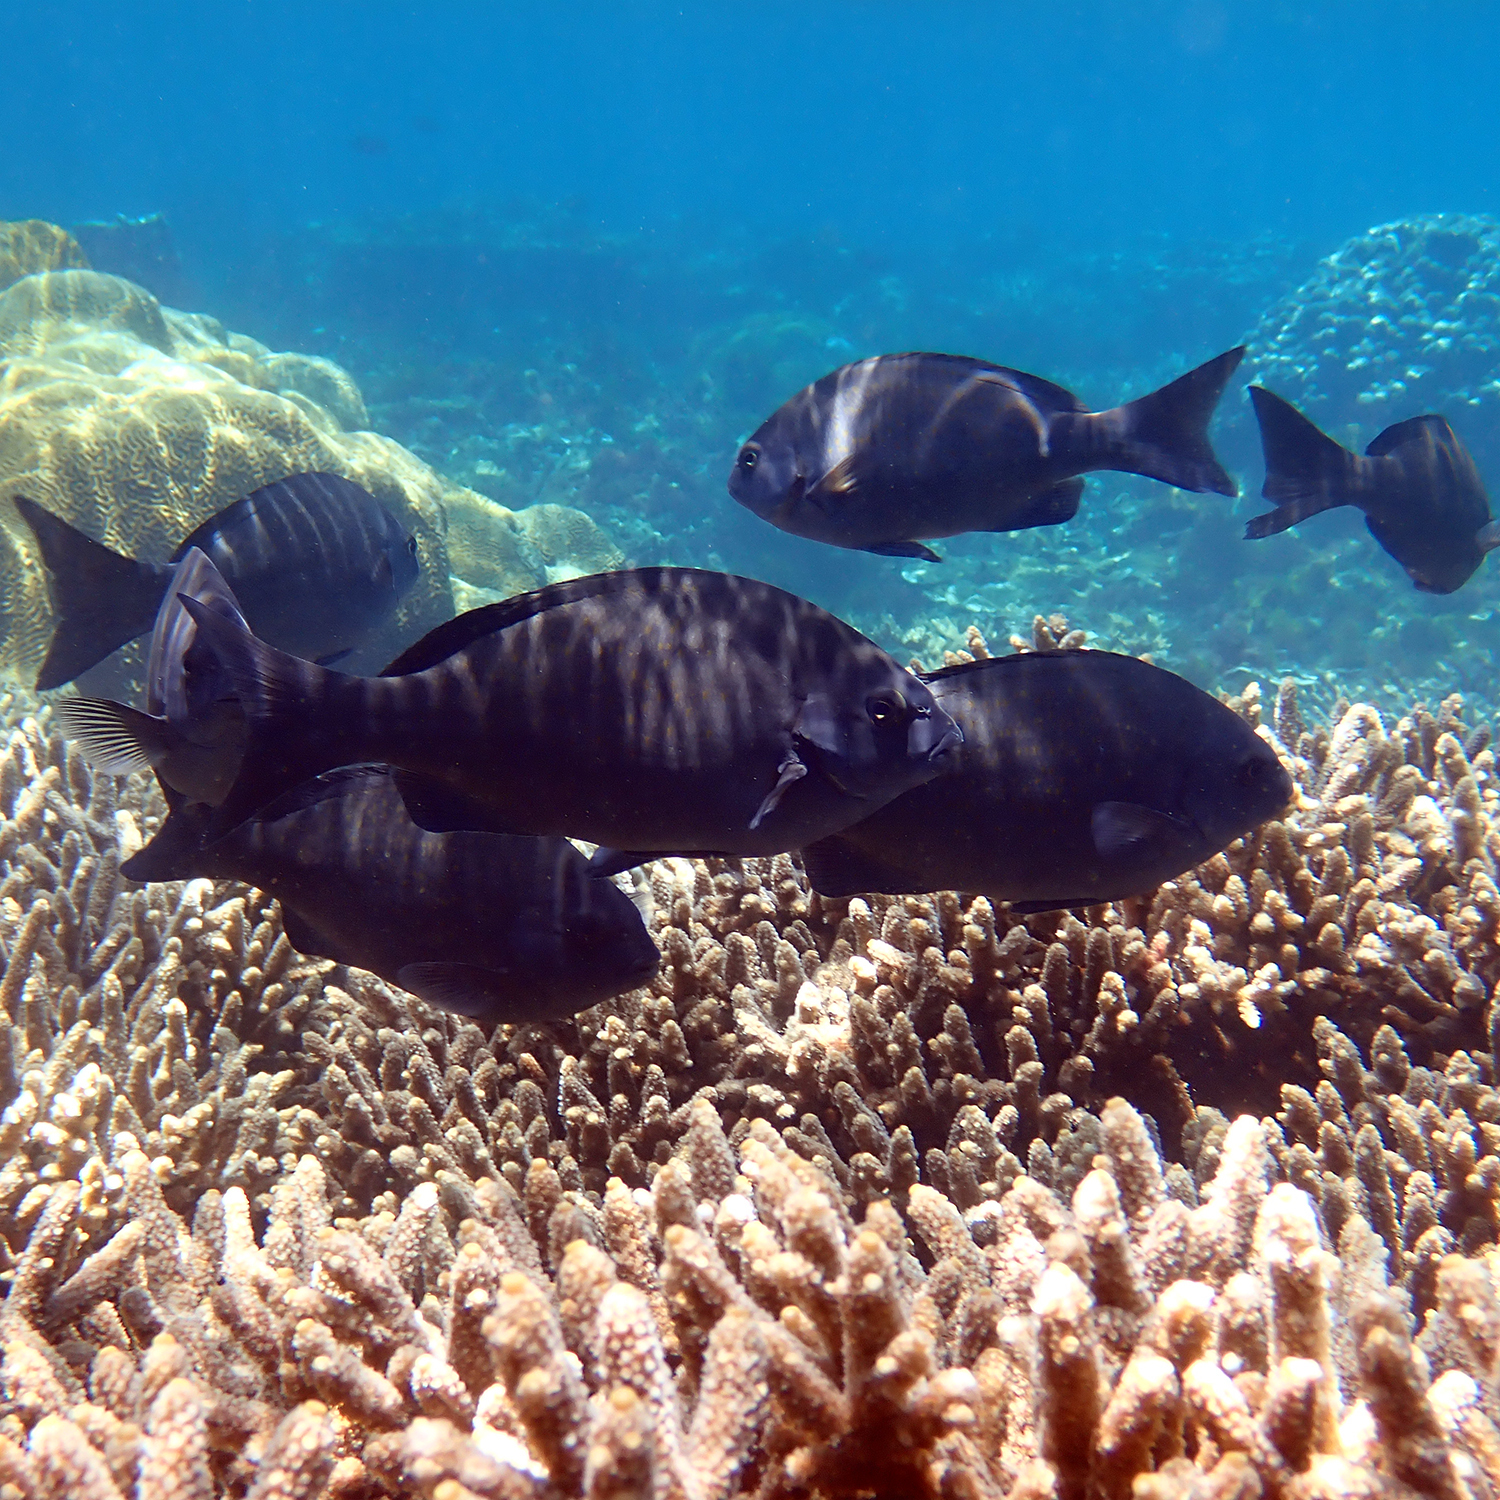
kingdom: Animalia
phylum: Chordata
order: Perciformes
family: Kyphosidae
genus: Girella
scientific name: Girella cyanea
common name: Bluefish
